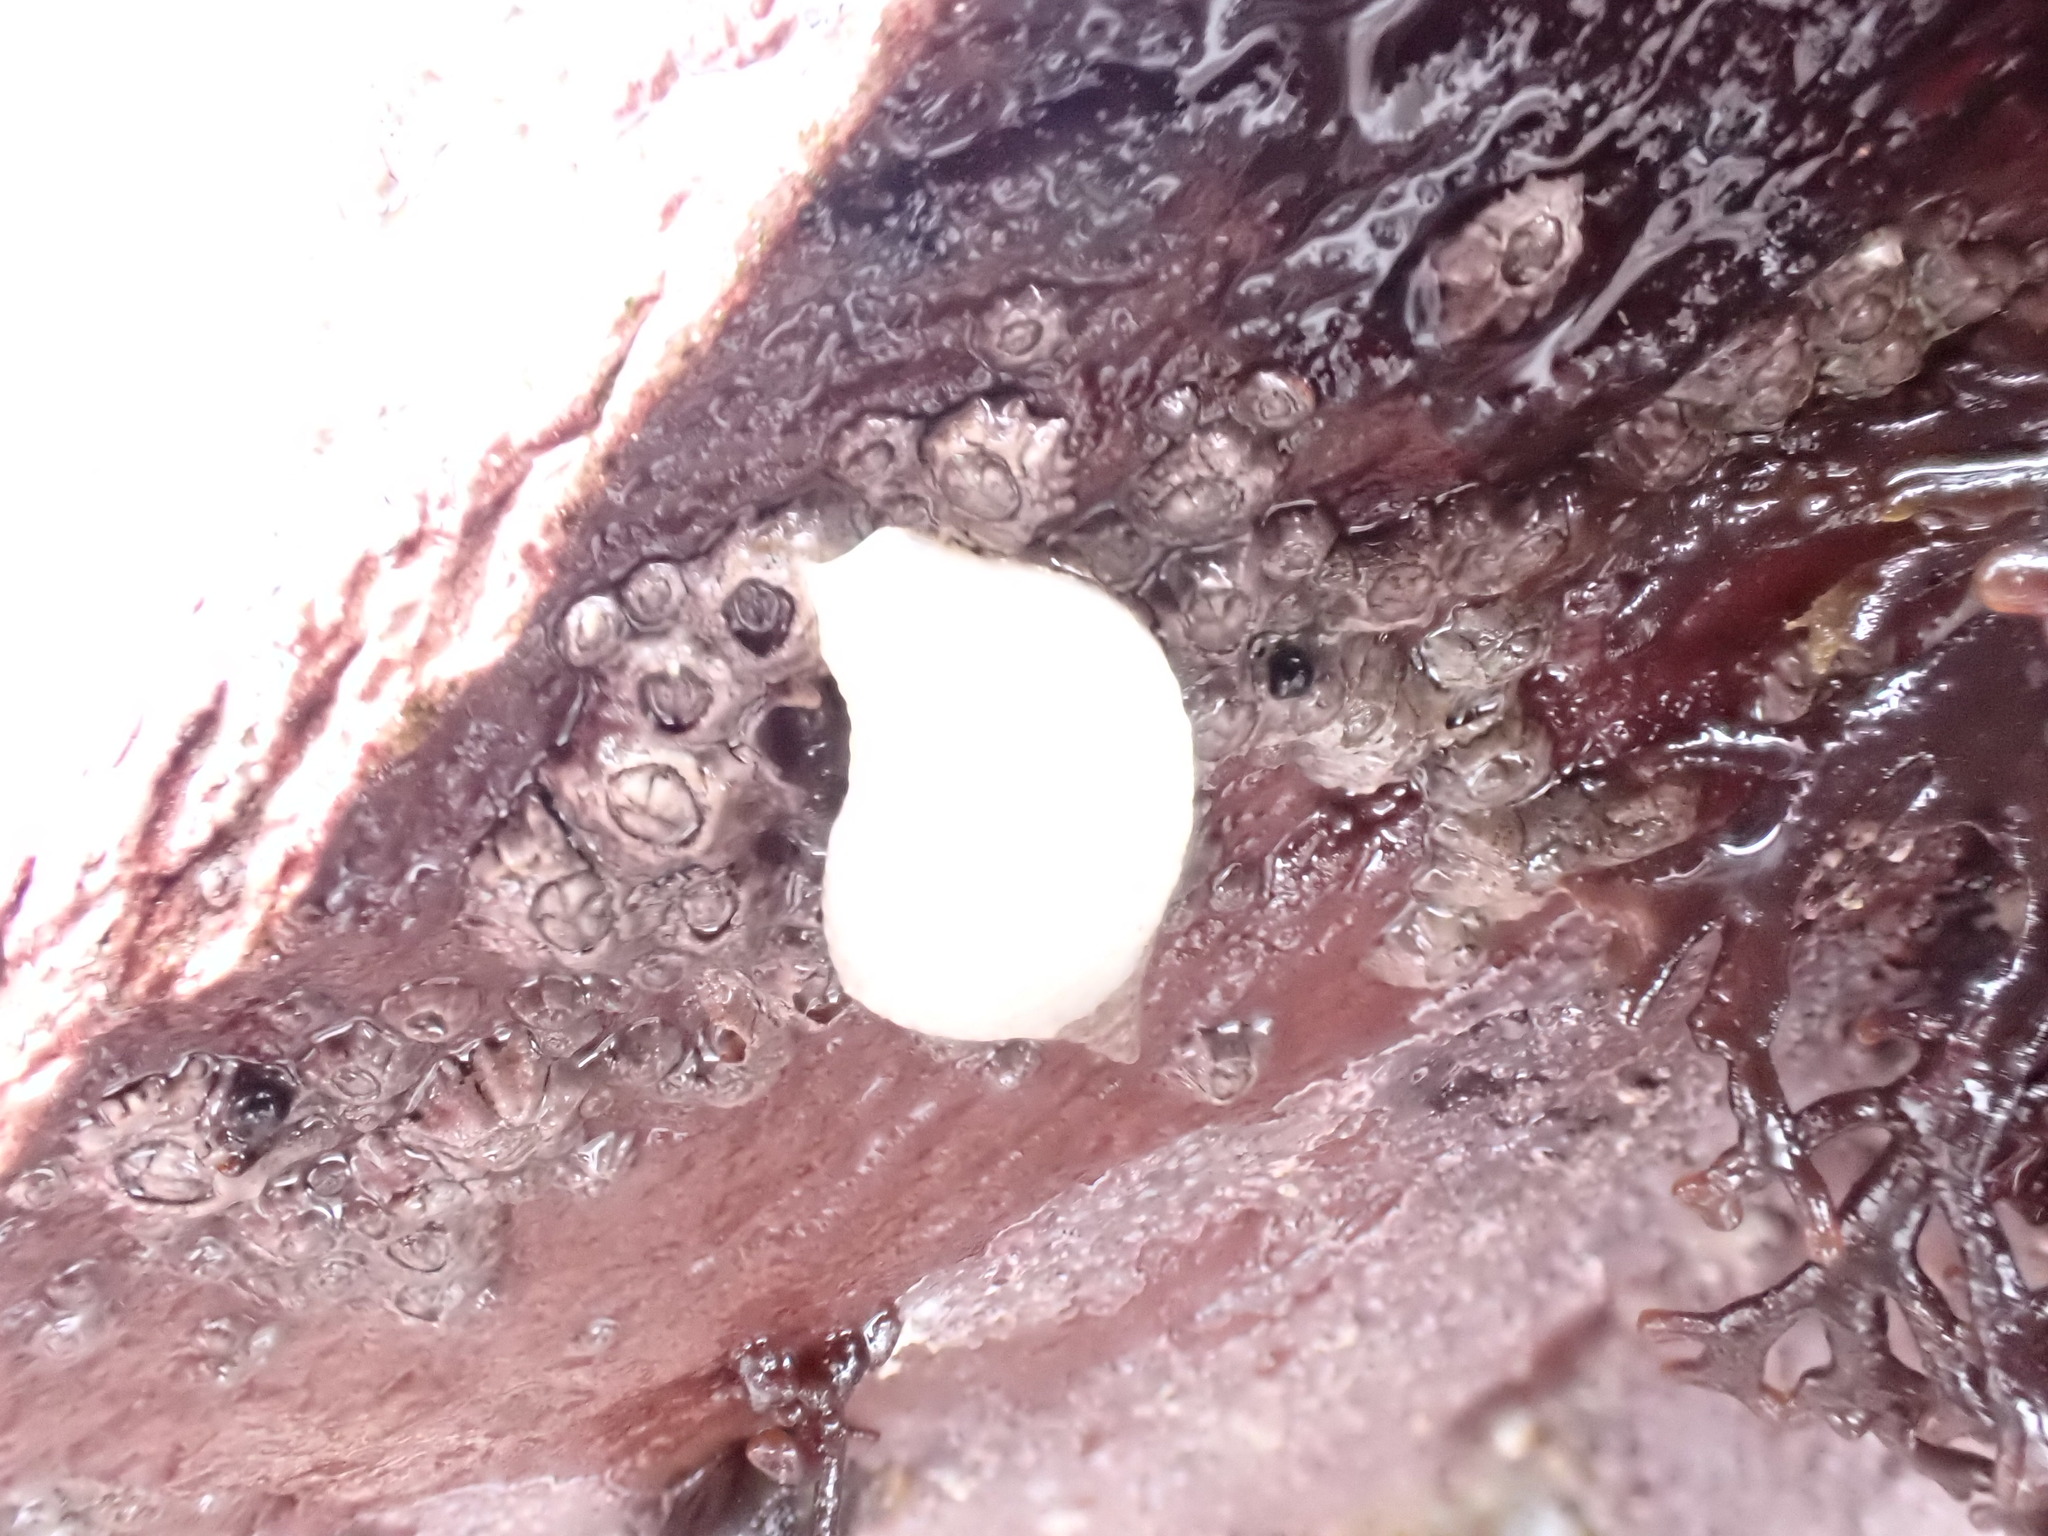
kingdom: Animalia
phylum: Mollusca
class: Gastropoda
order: Neogastropoda
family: Muricidae
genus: Nucella
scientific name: Nucella lapillus
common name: Dog whelk
